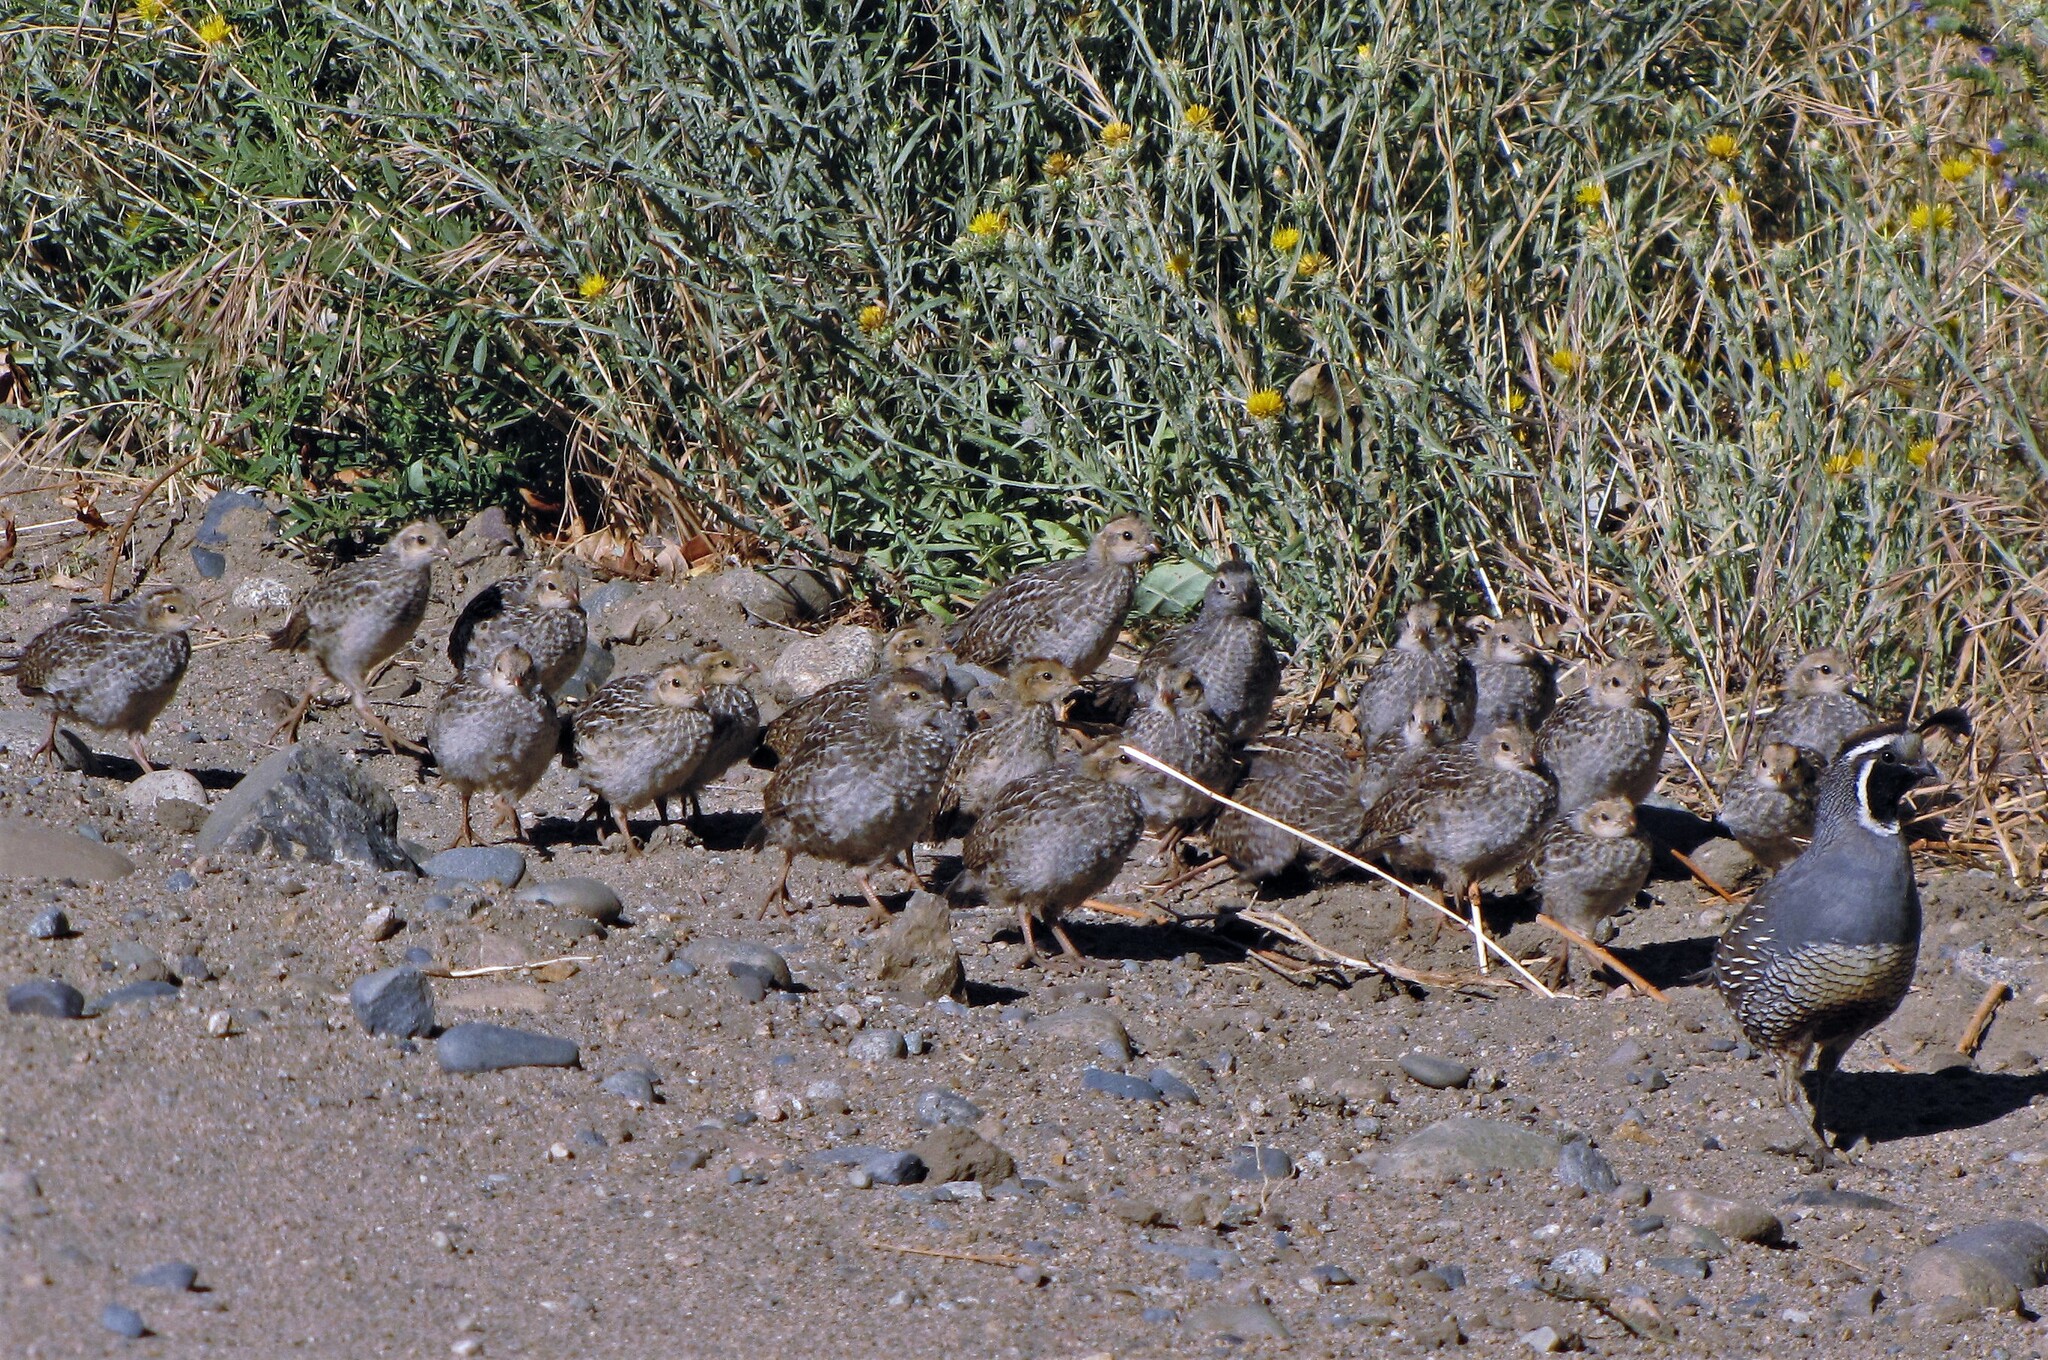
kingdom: Animalia
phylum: Chordata
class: Aves
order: Galliformes
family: Odontophoridae
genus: Callipepla
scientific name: Callipepla californica
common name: California quail
